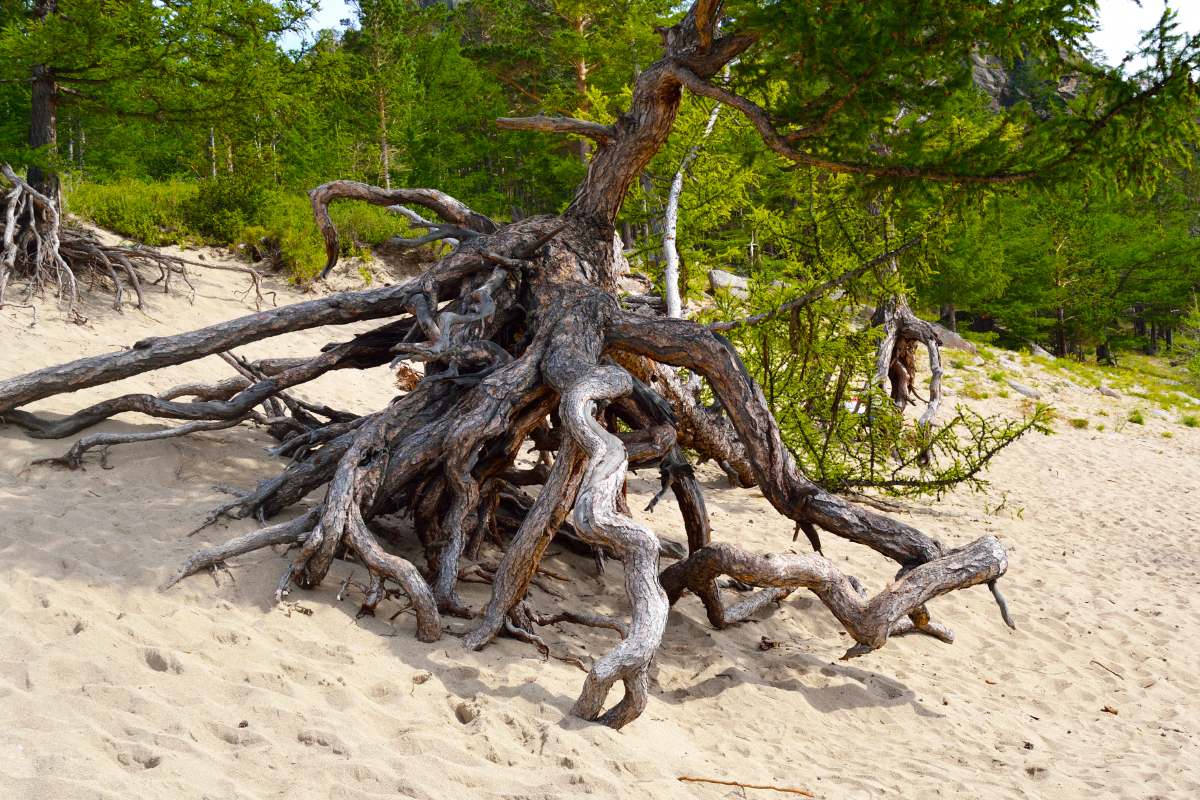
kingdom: Plantae
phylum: Tracheophyta
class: Pinopsida
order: Pinales
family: Pinaceae
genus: Larix
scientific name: Larix sibirica
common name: Siberian larch
